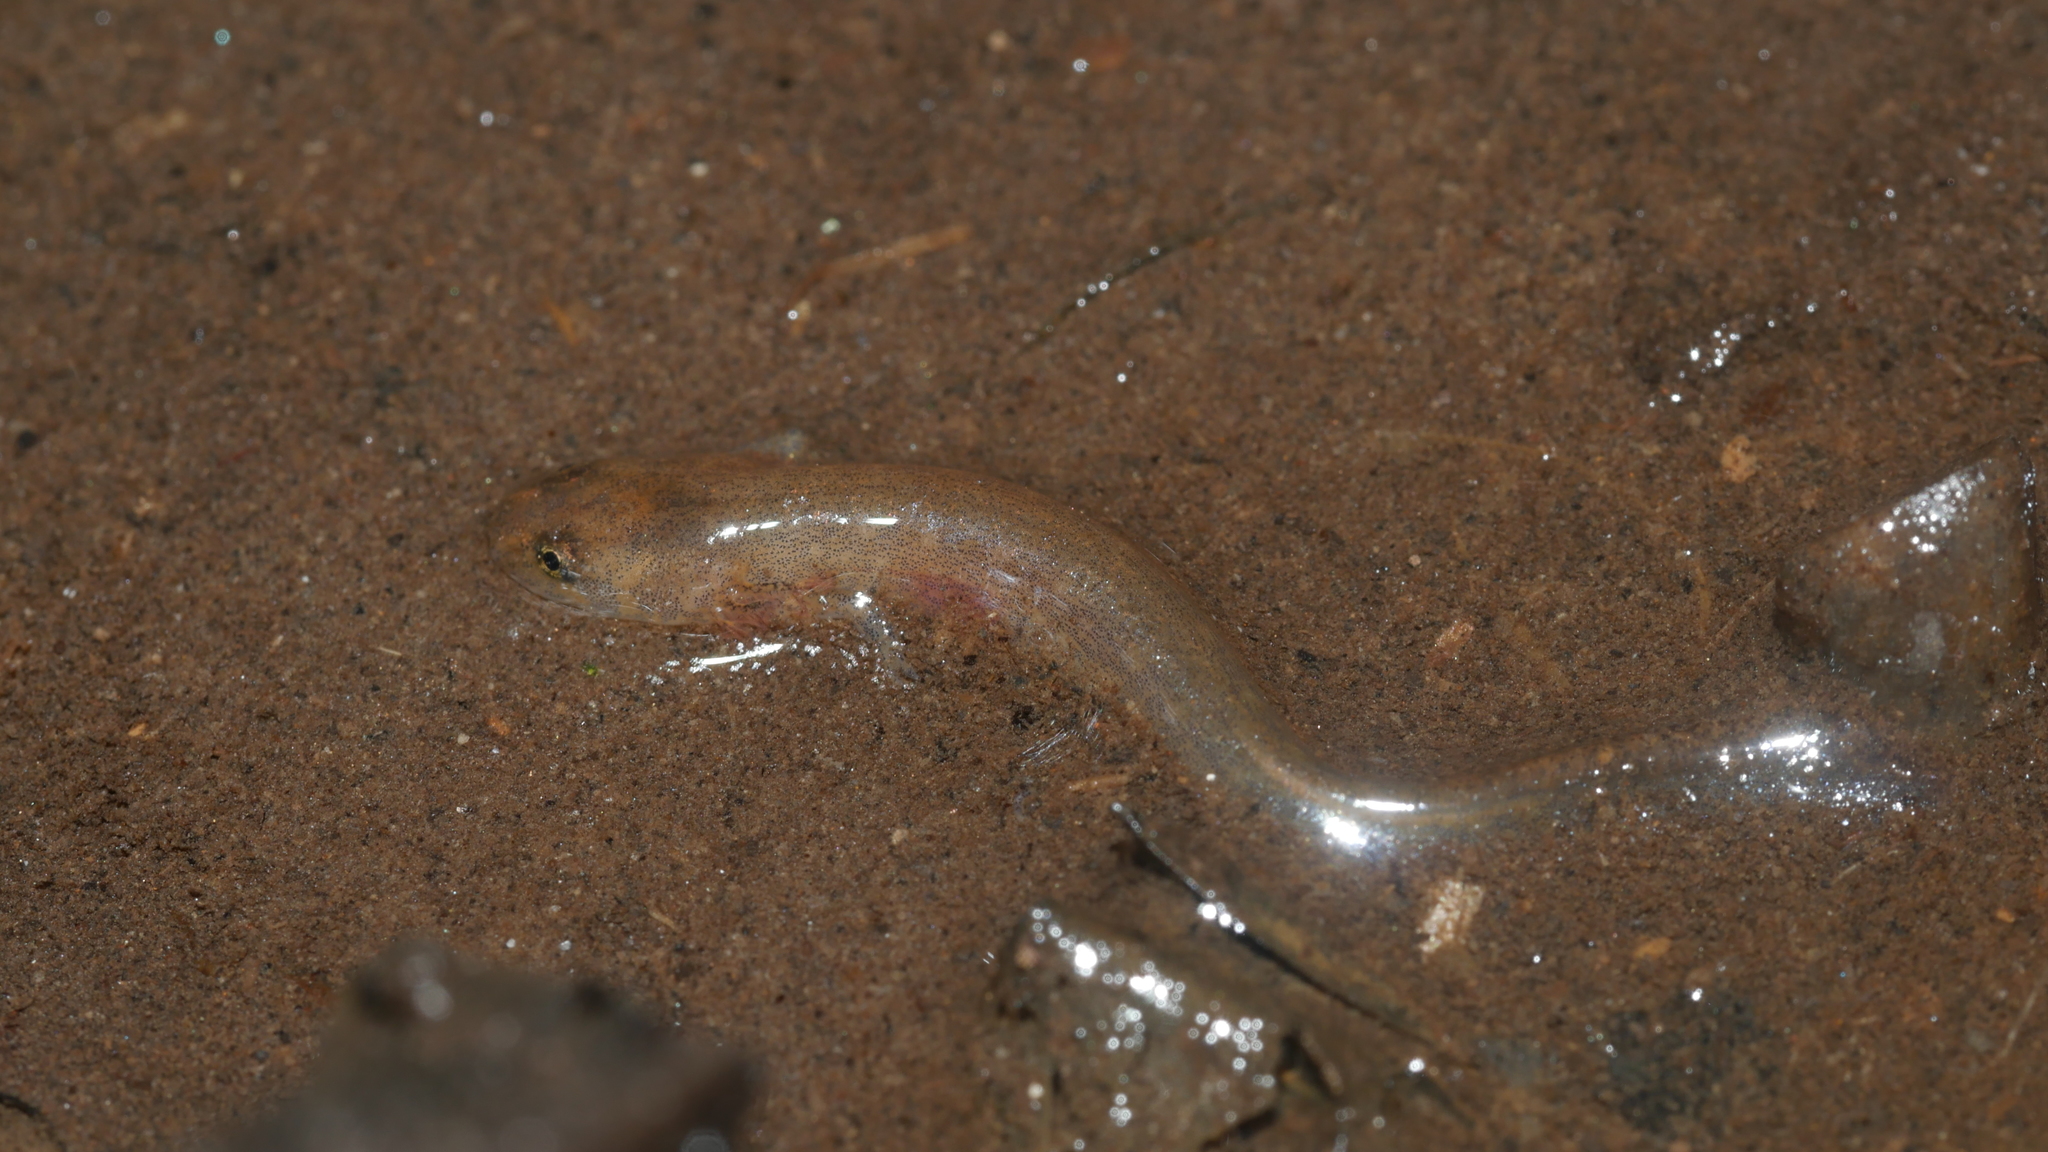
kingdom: Animalia
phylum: Chordata
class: Amphibia
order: Caudata
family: Plethodontidae
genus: Eurycea
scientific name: Eurycea cirrigera
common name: Southern two-lined salamander
